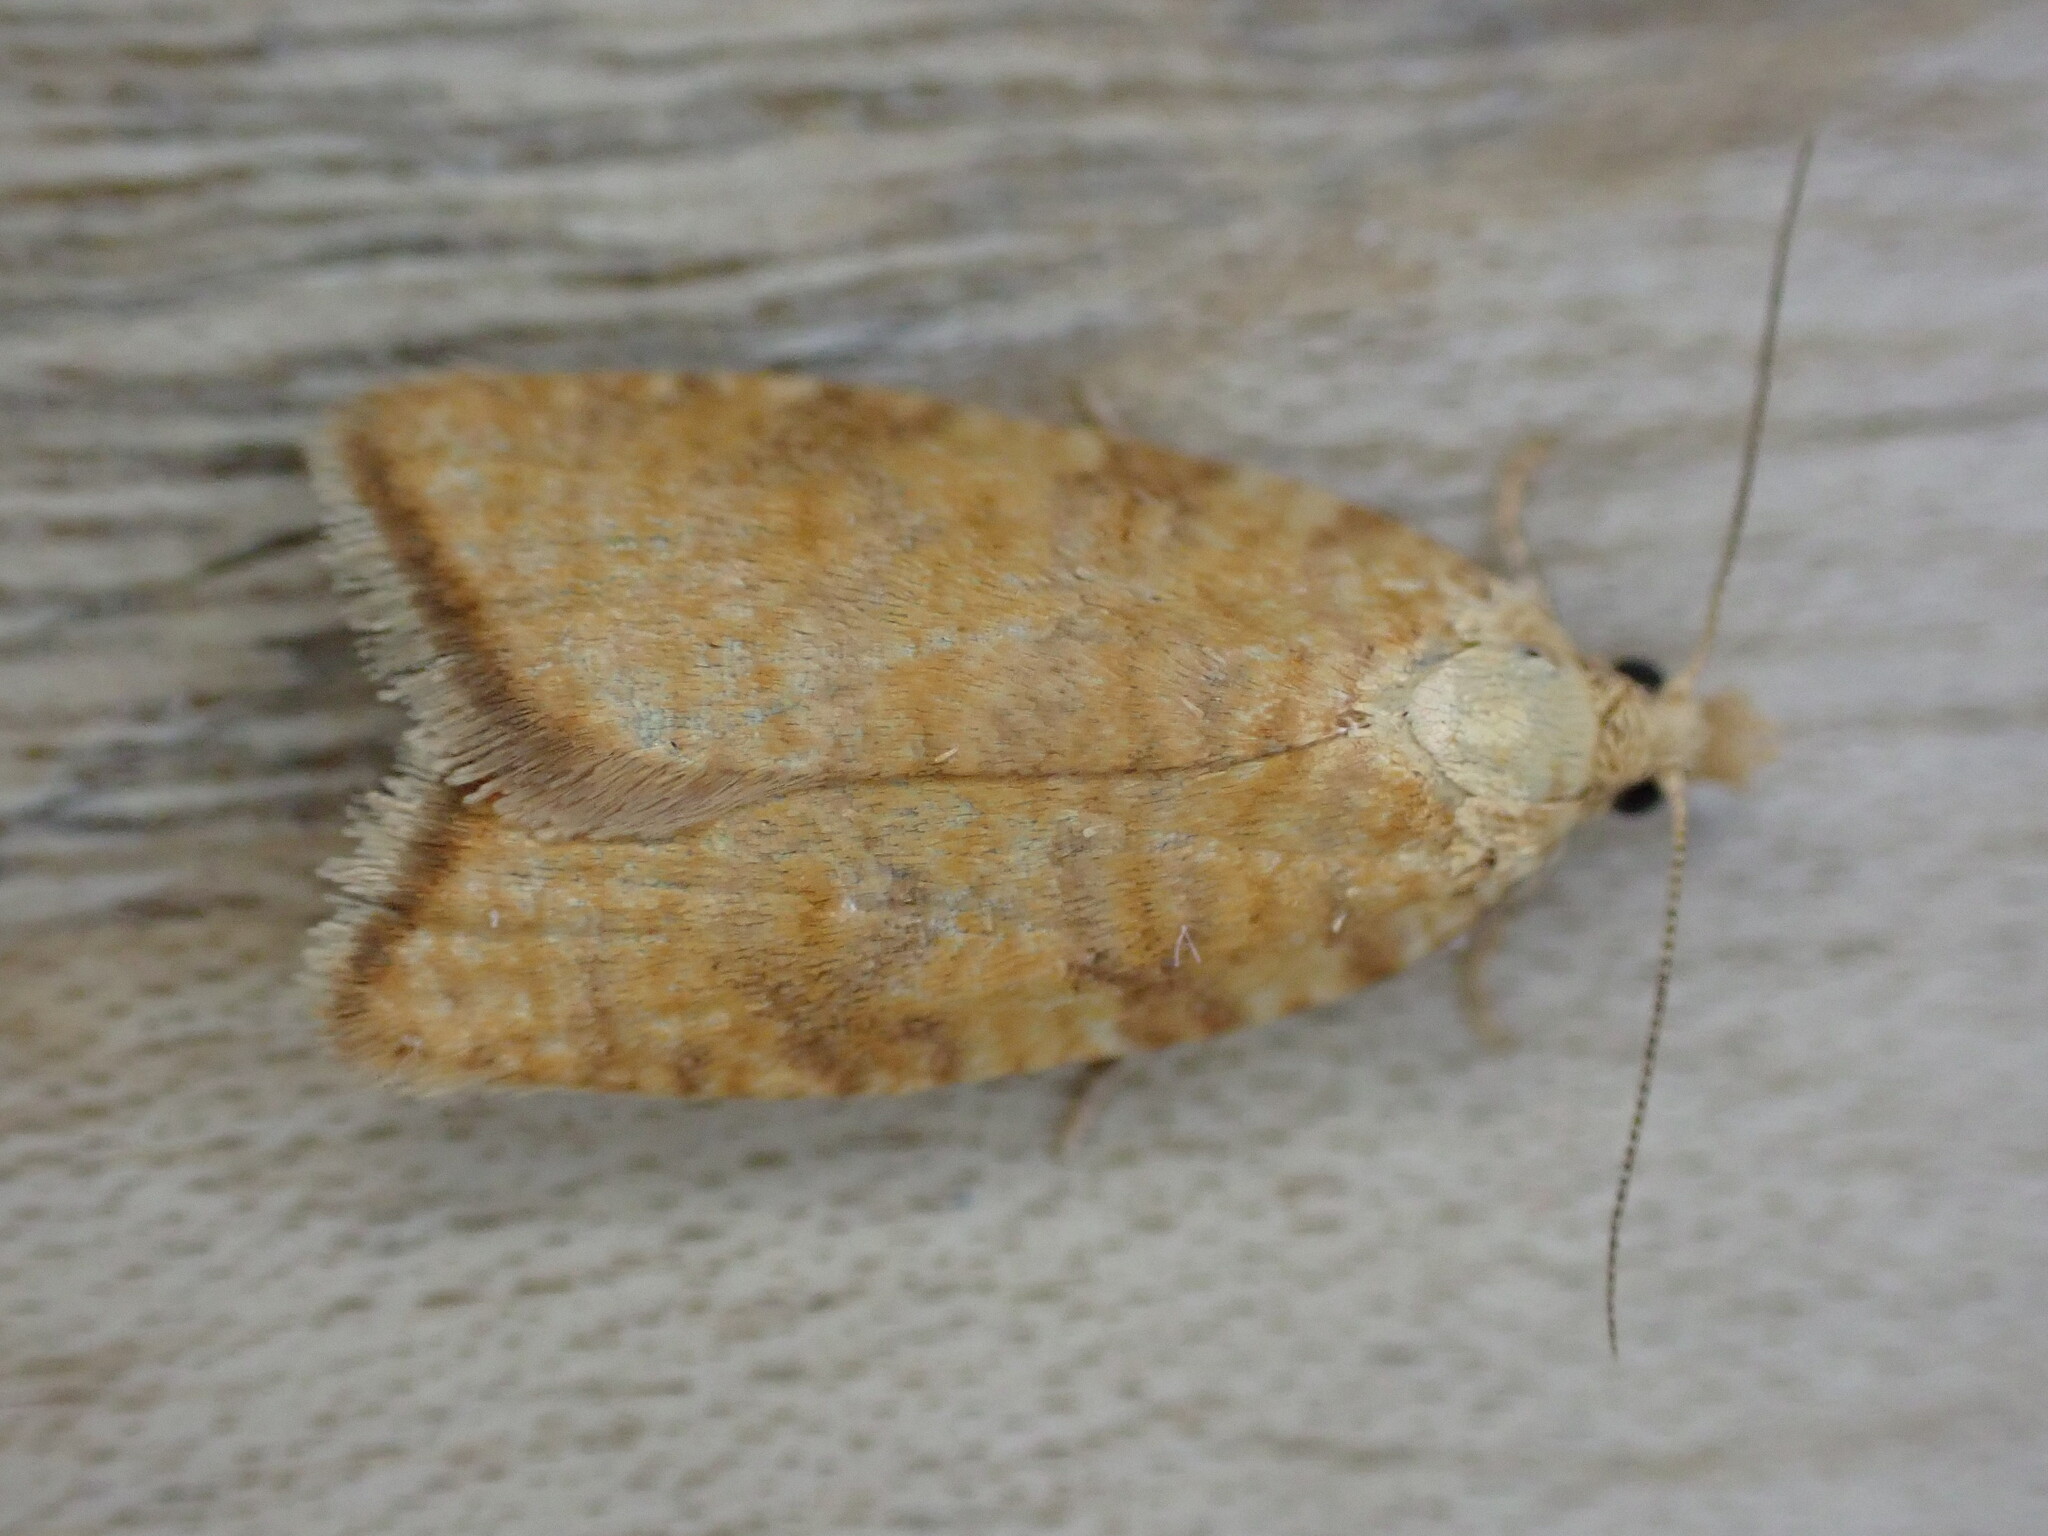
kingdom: Animalia
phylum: Arthropoda
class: Insecta
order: Lepidoptera
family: Tortricidae
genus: Aleimma
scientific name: Aleimma loeflingiana
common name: Yellow oak button
